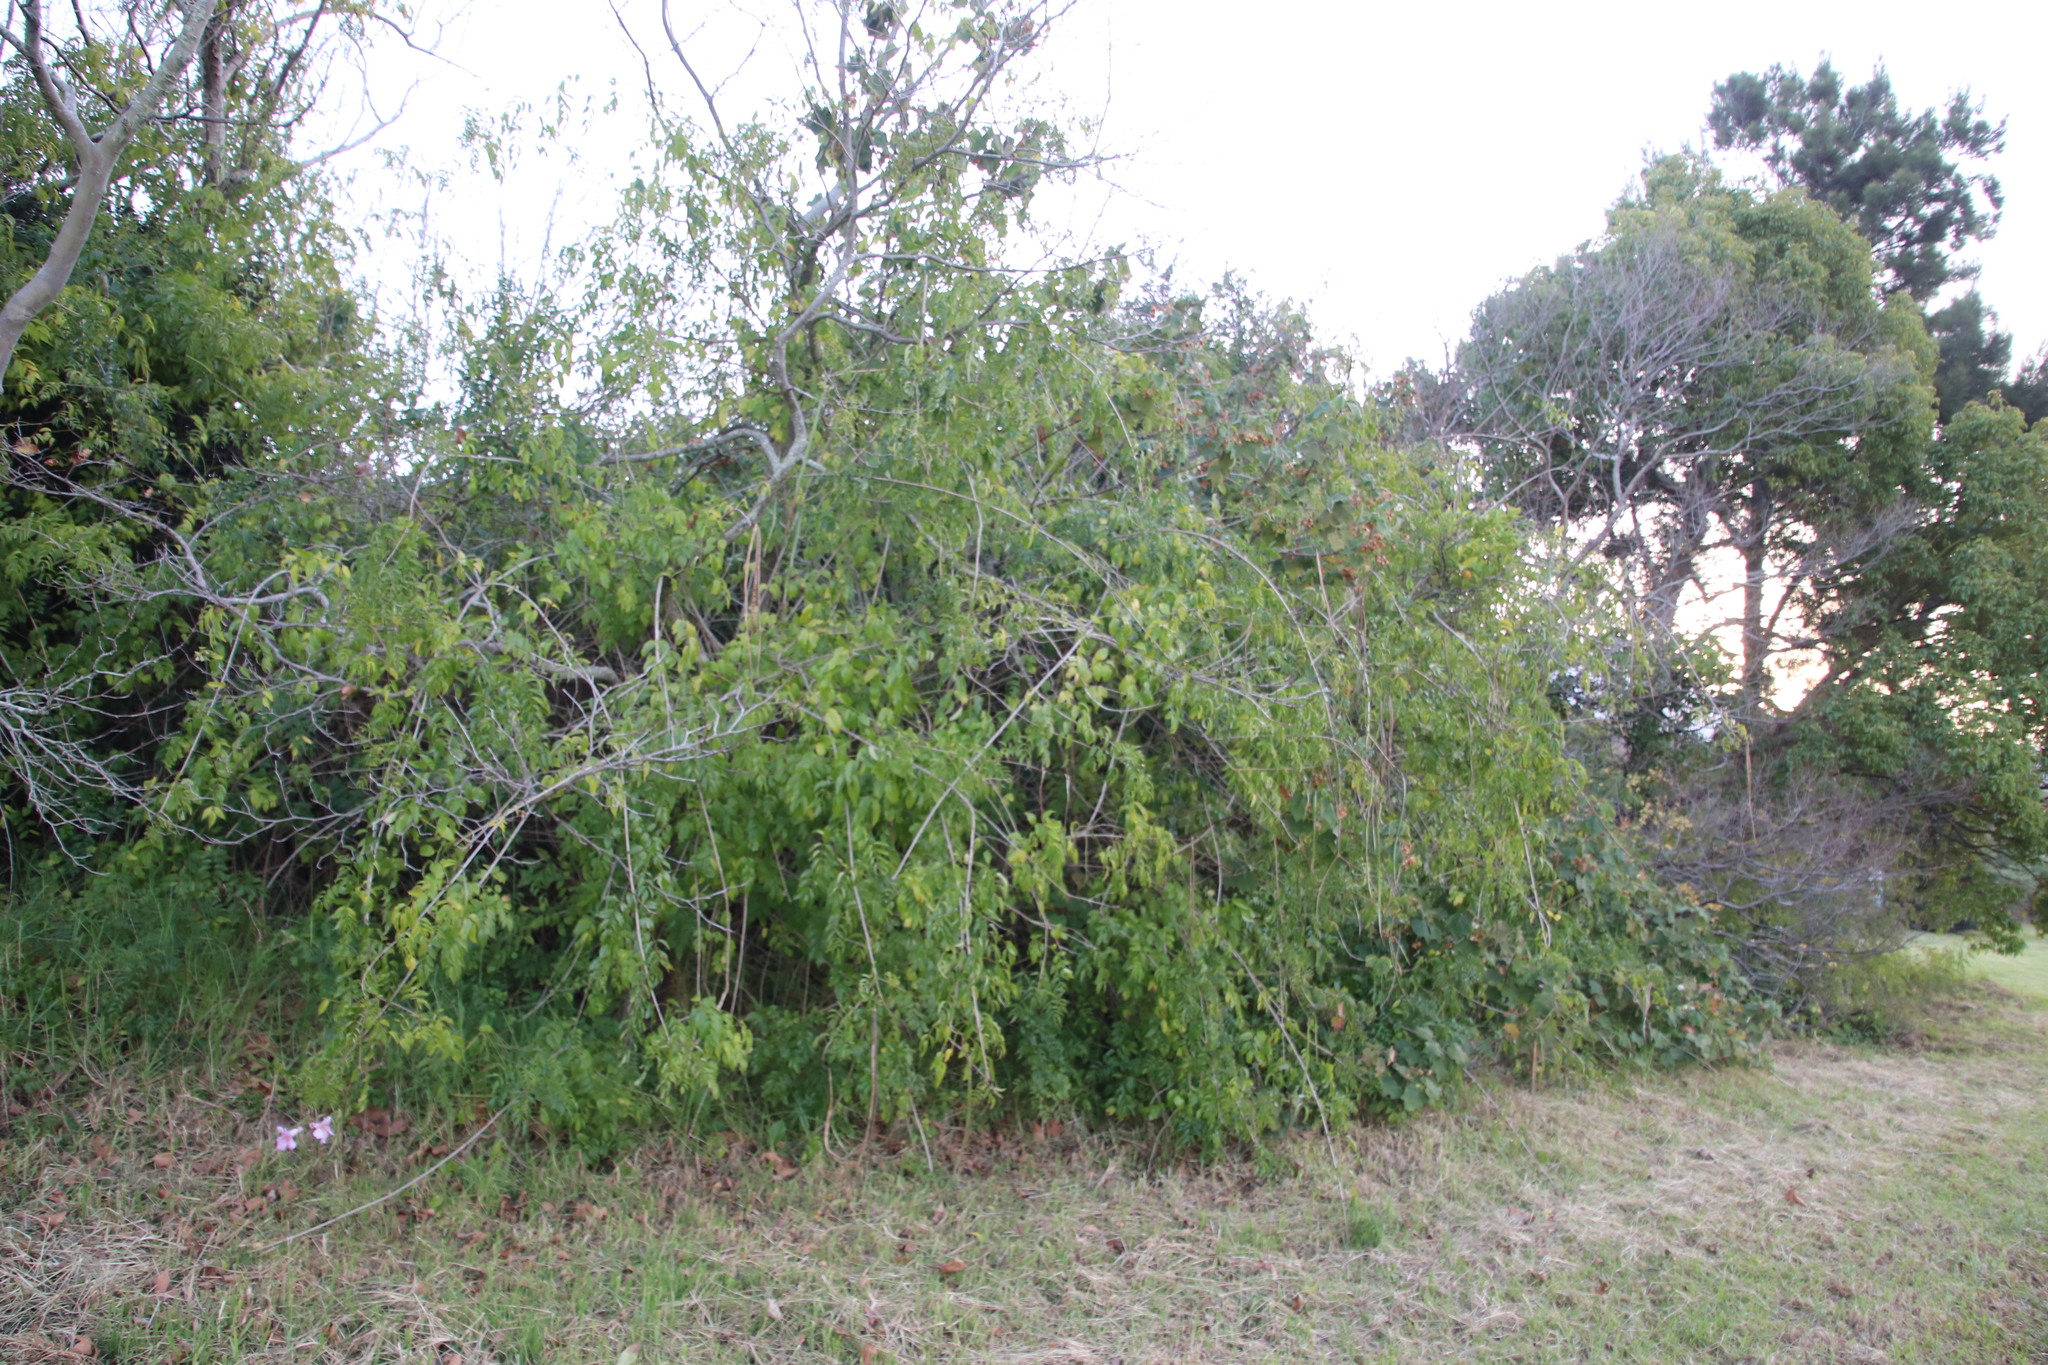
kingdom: Plantae
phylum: Tracheophyta
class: Magnoliopsida
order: Lamiales
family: Bignoniaceae
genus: Podranea
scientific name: Podranea ricasoliana
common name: Zimbabwe creeper
